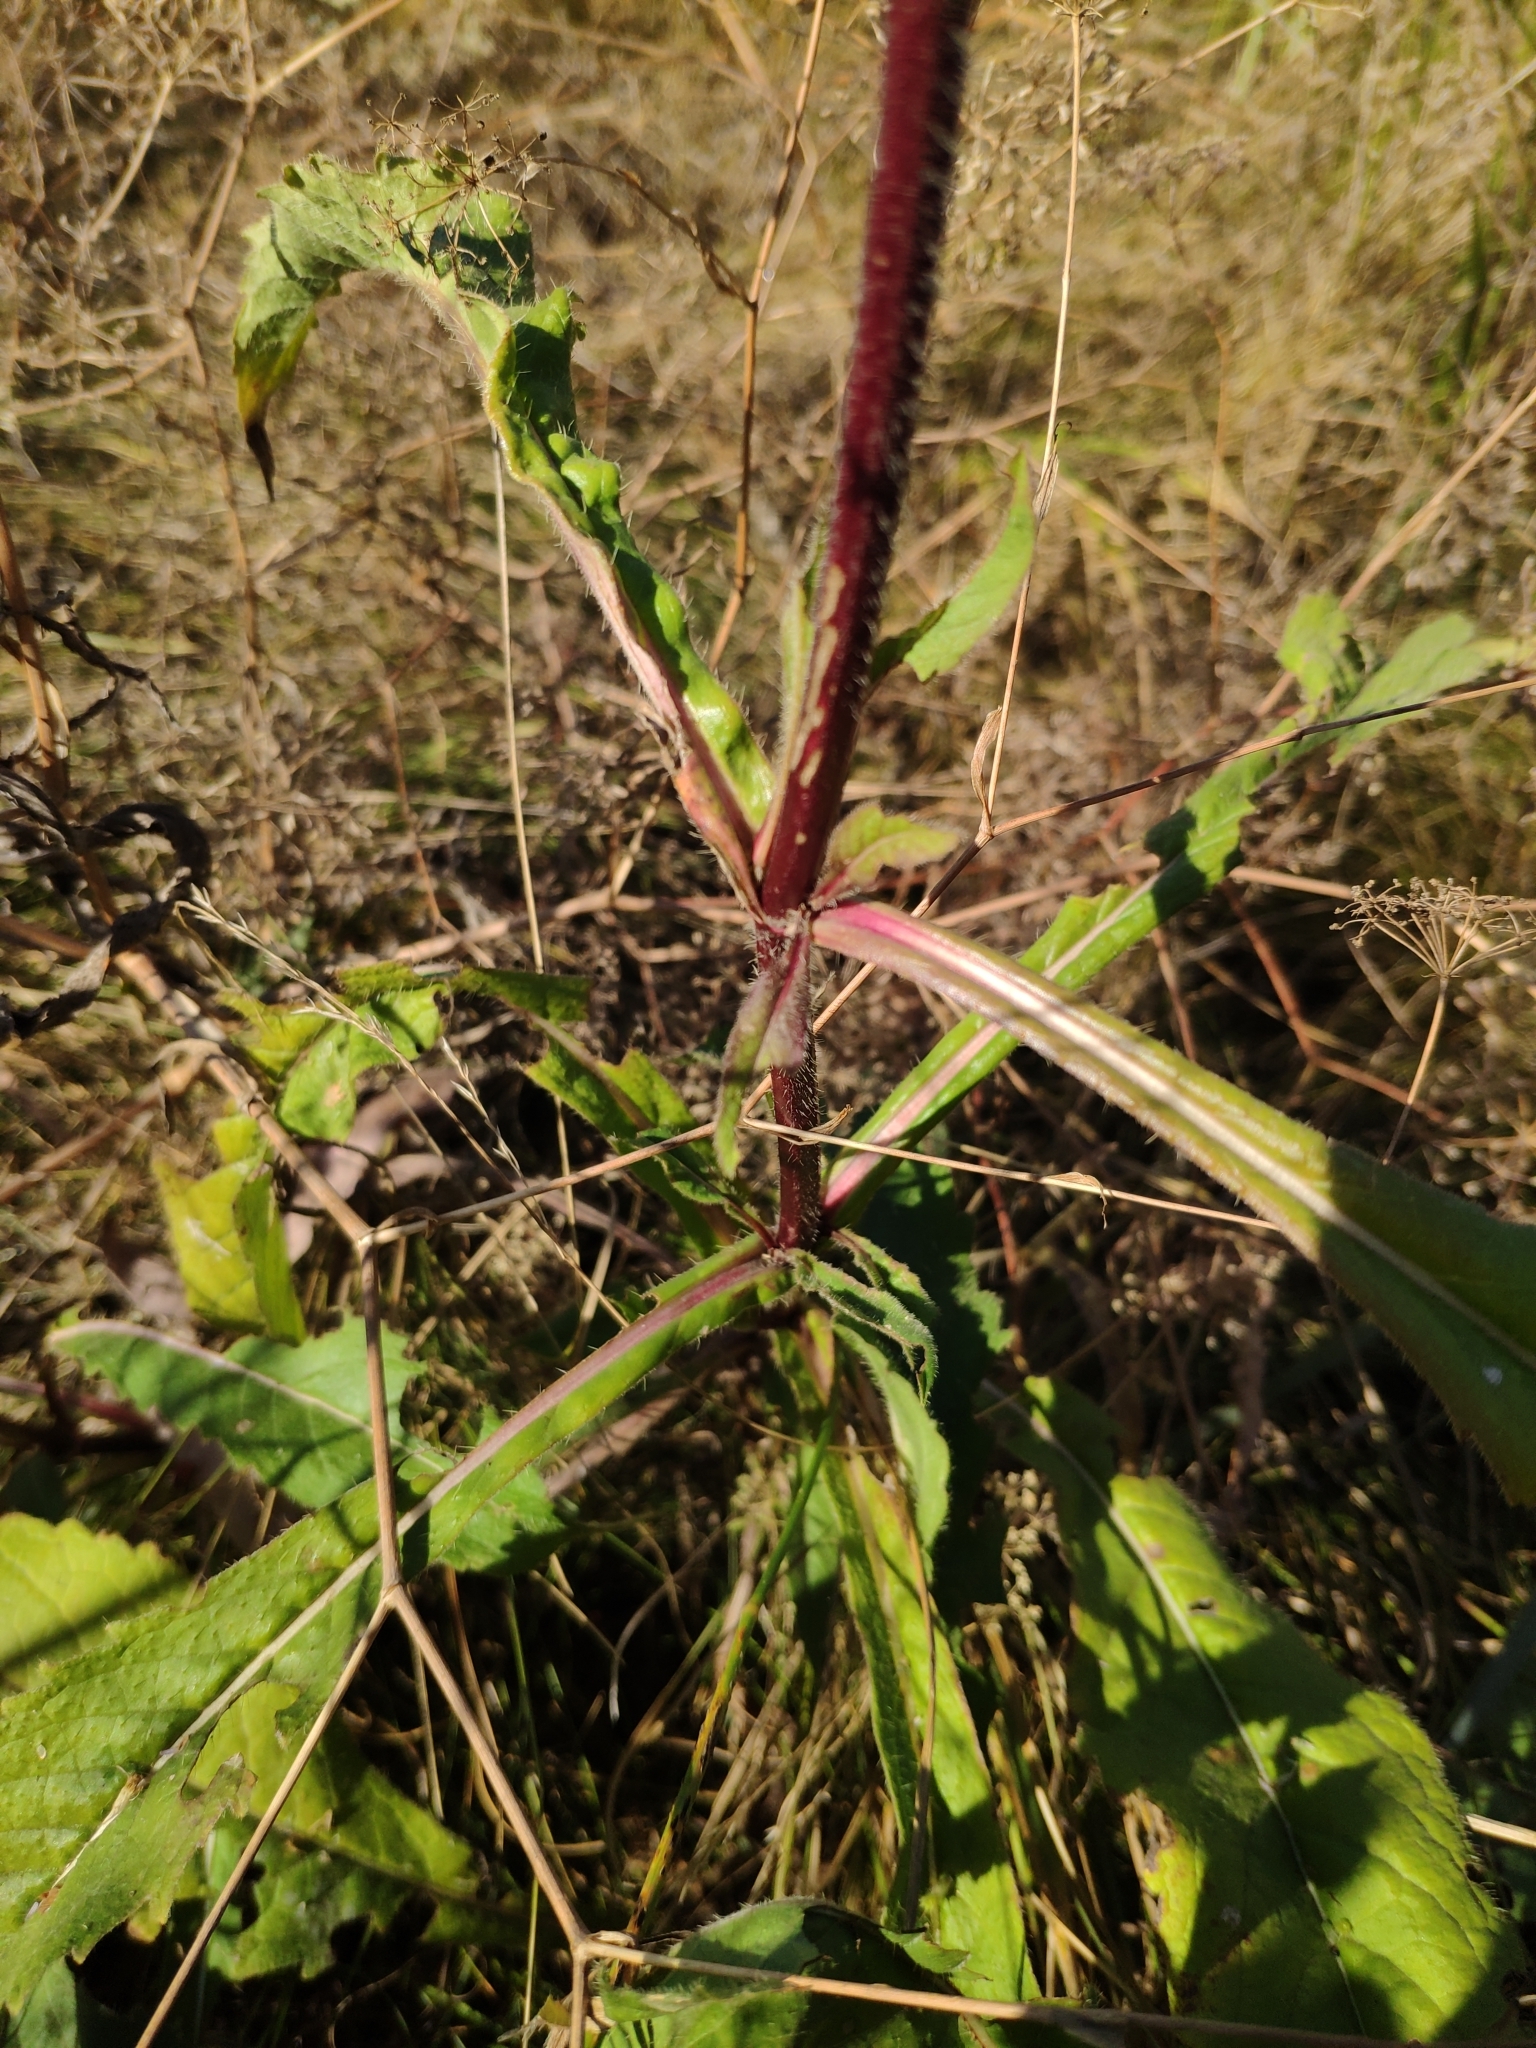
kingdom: Plantae
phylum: Tracheophyta
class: Magnoliopsida
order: Dipsacales
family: Caprifoliaceae
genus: Knautia
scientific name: Knautia arvensis
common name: Field scabiosa
